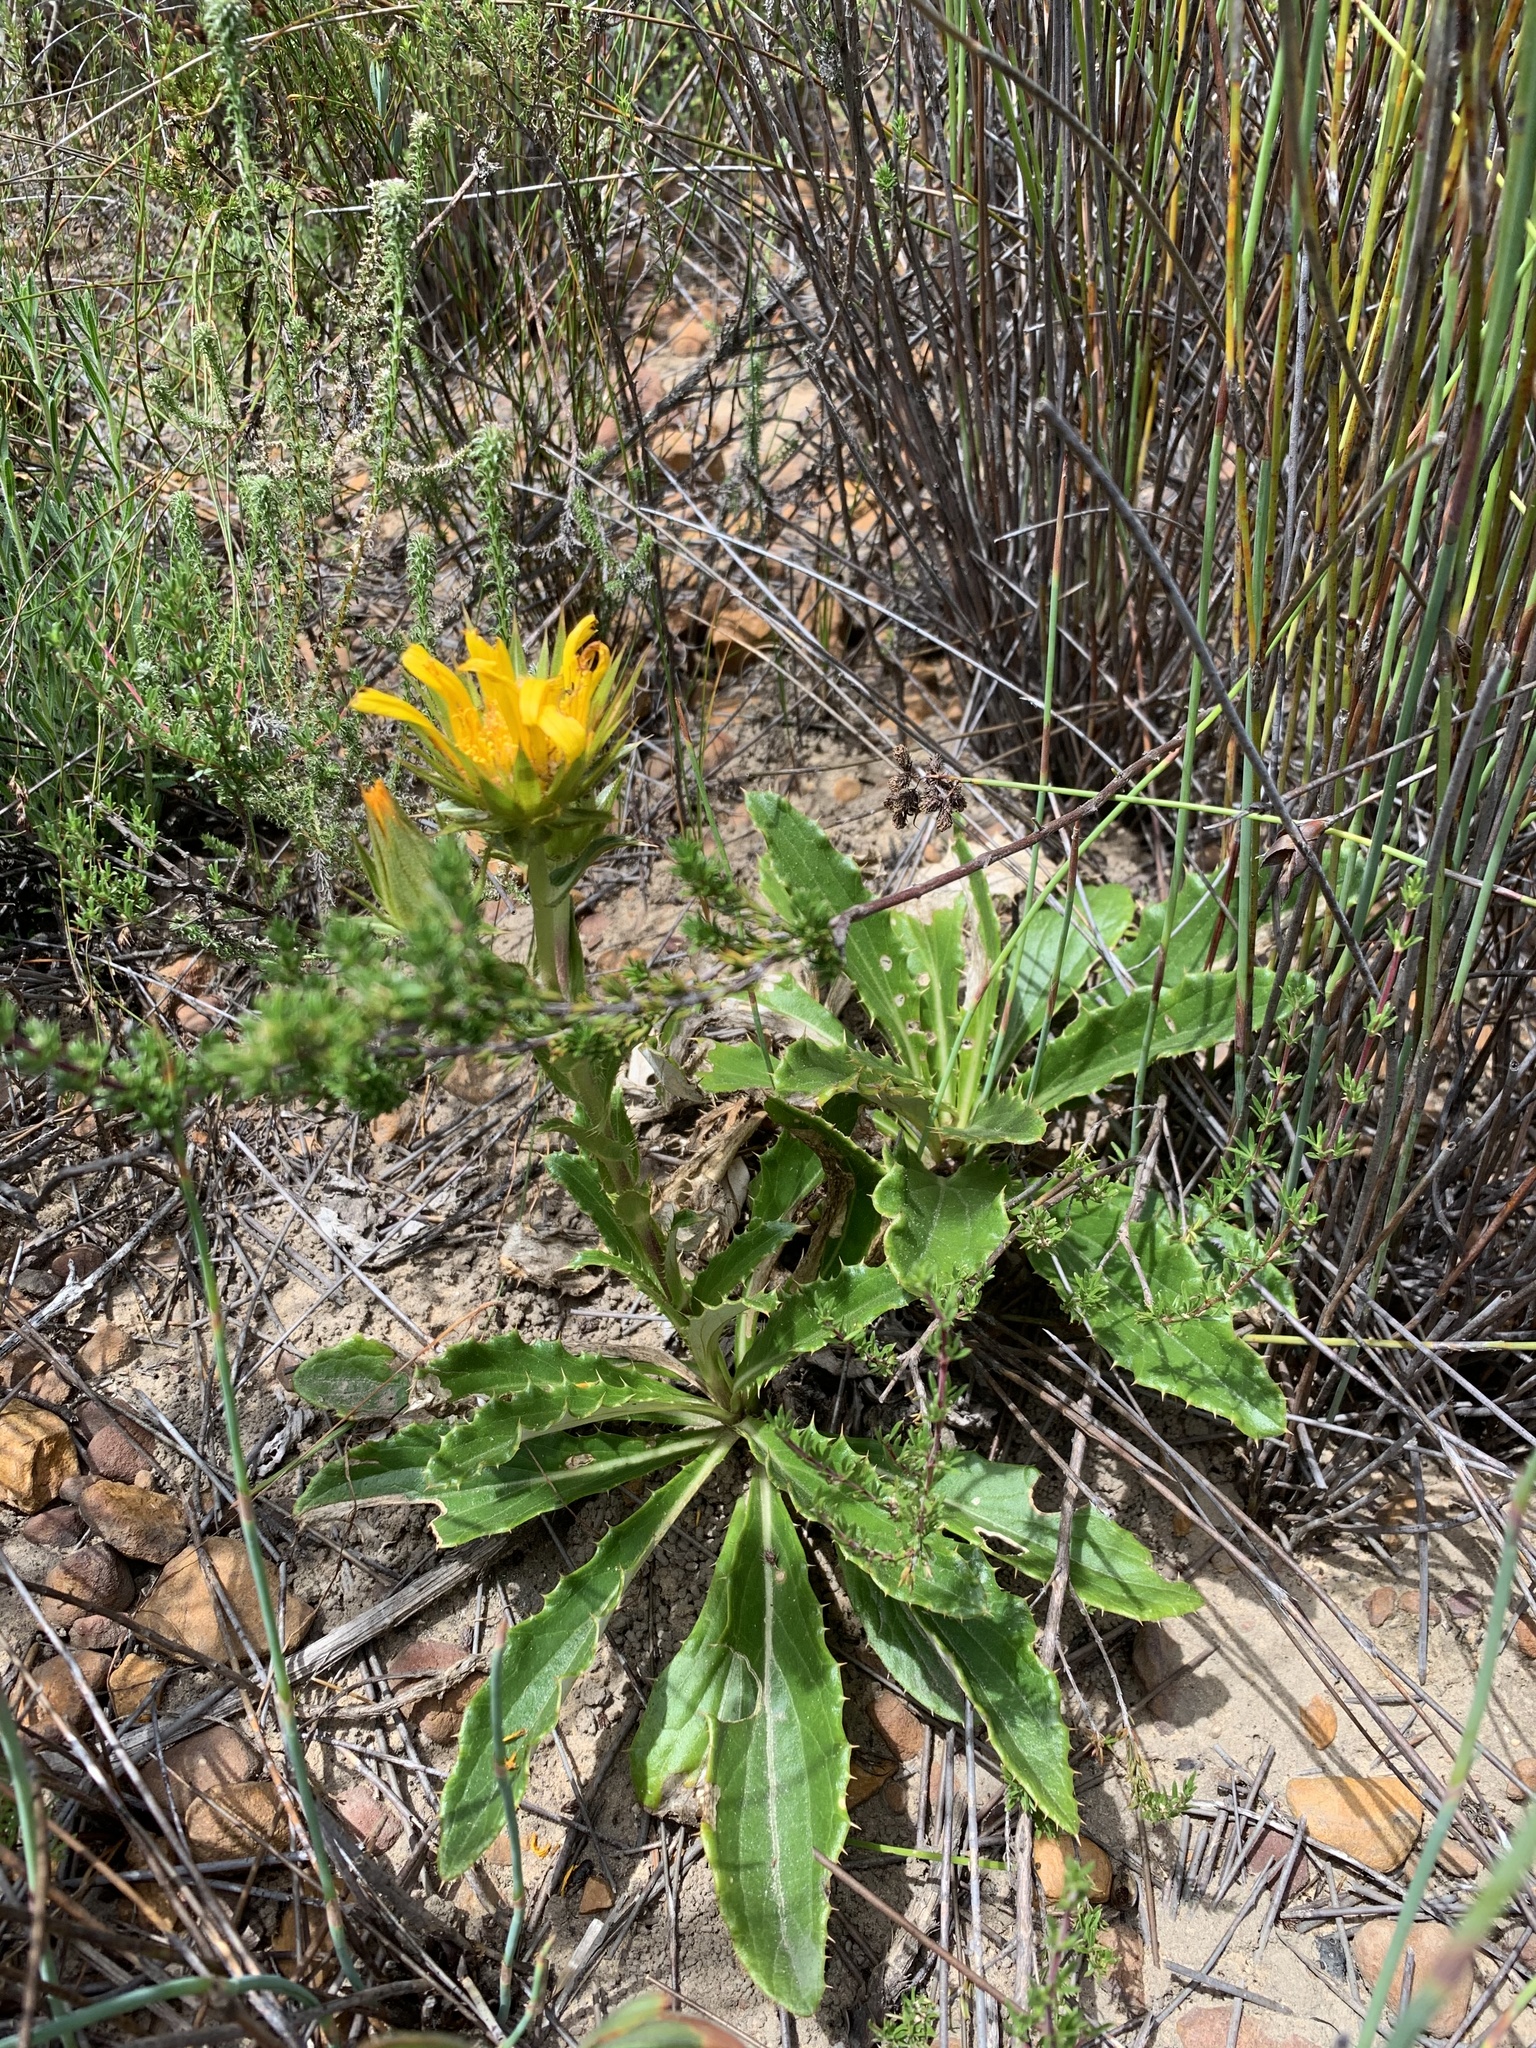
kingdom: Plantae
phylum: Tracheophyta
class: Magnoliopsida
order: Asterales
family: Asteraceae
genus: Berkheya
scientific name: Berkheya armata
